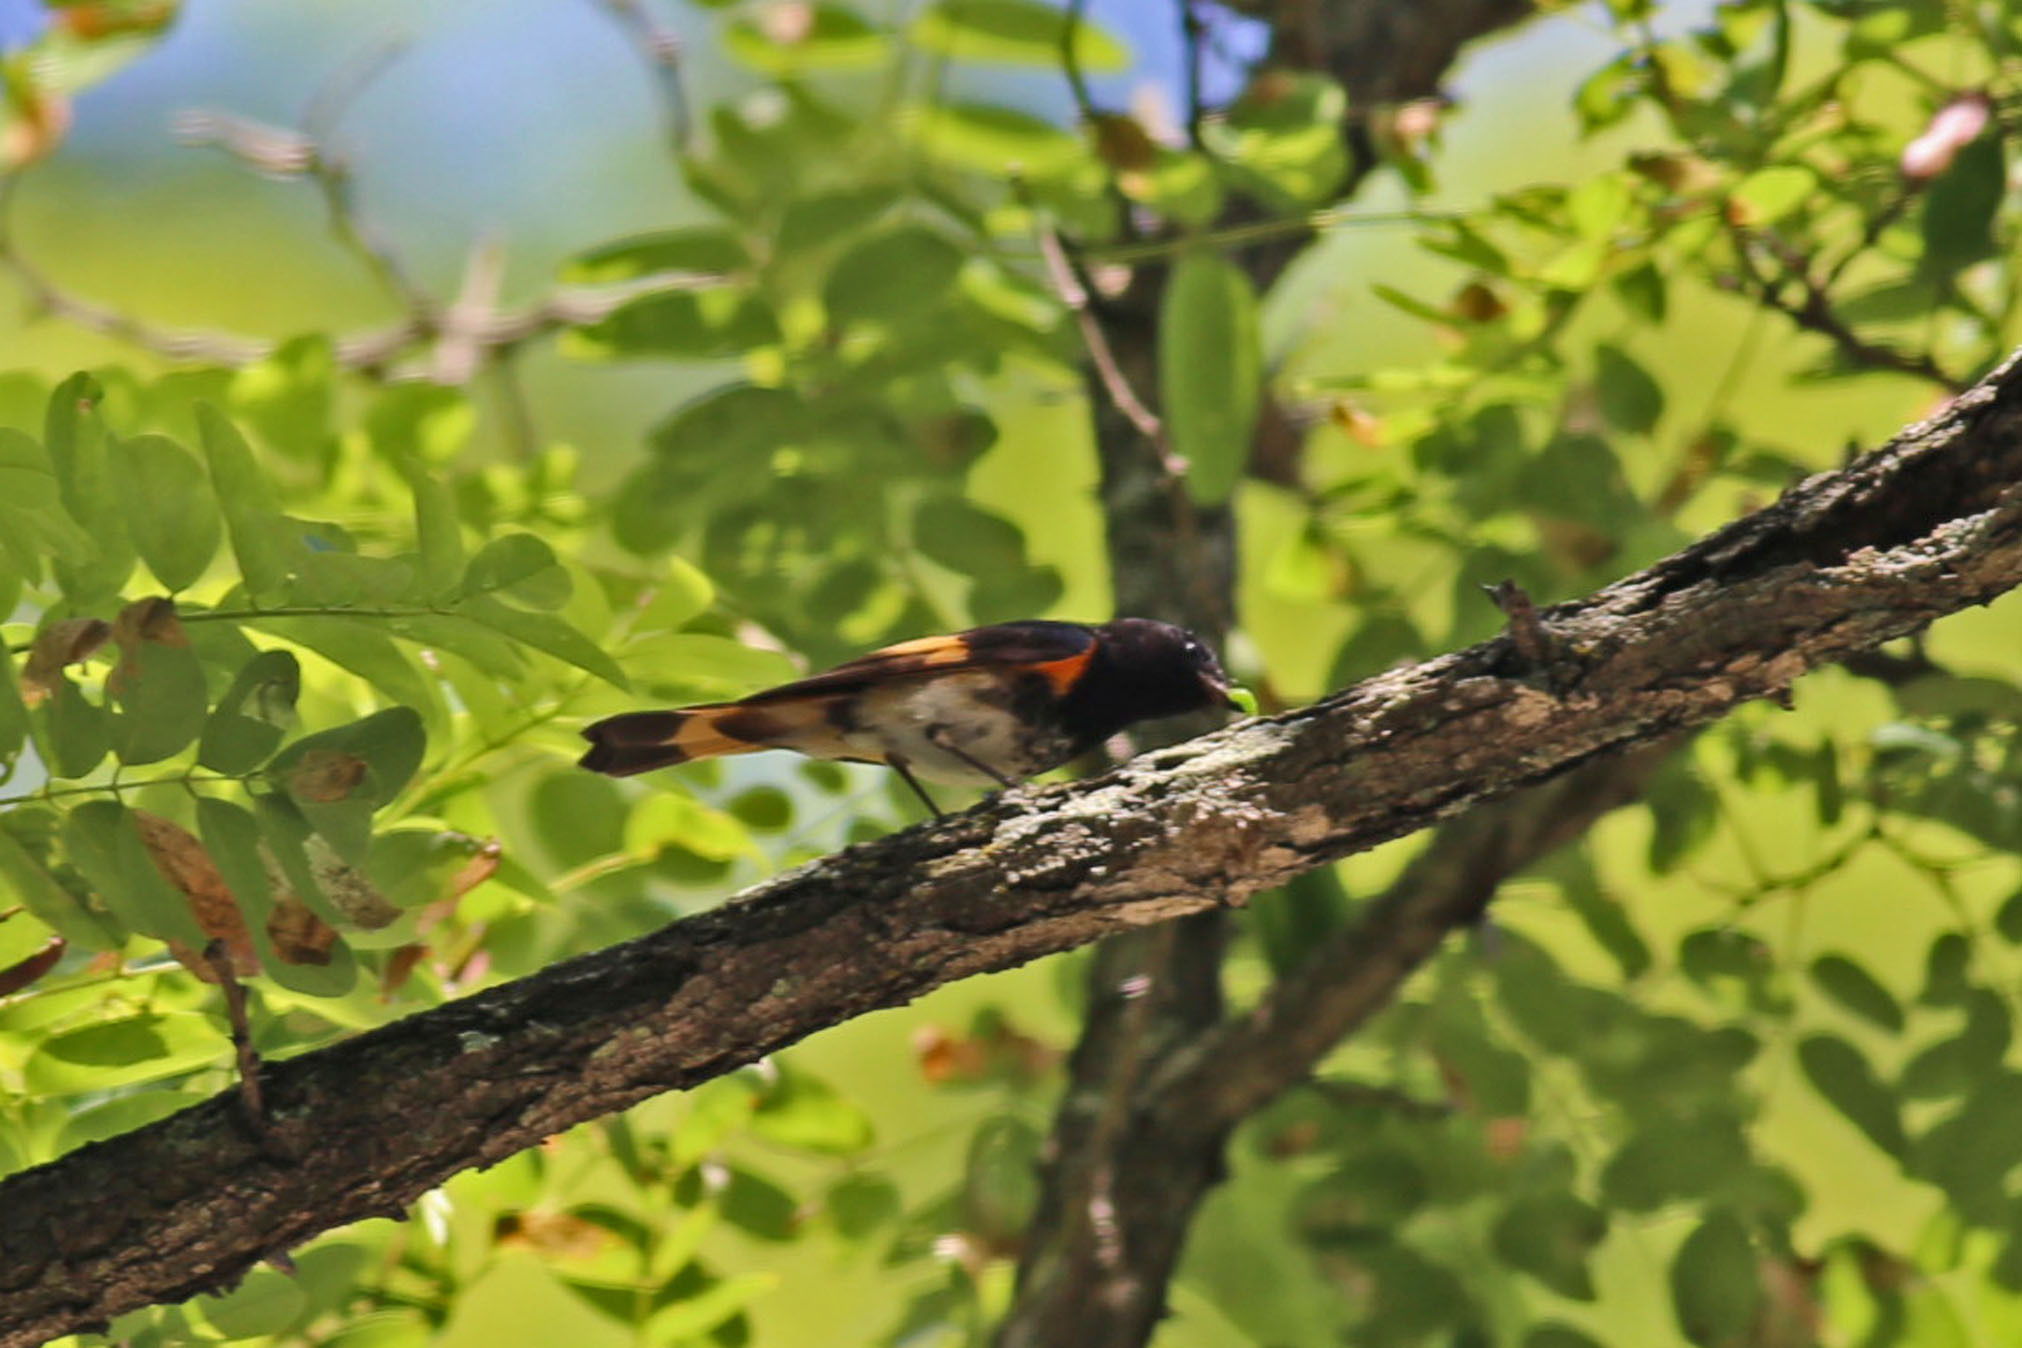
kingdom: Animalia
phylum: Chordata
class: Aves
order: Passeriformes
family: Parulidae
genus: Setophaga
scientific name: Setophaga ruticilla
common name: American redstart
